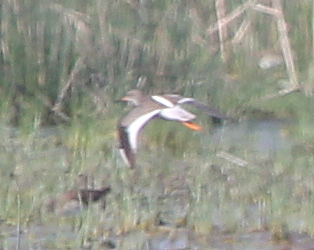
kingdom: Animalia
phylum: Chordata
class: Aves
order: Charadriiformes
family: Scolopacidae
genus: Tringa
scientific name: Tringa totanus
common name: Common redshank
